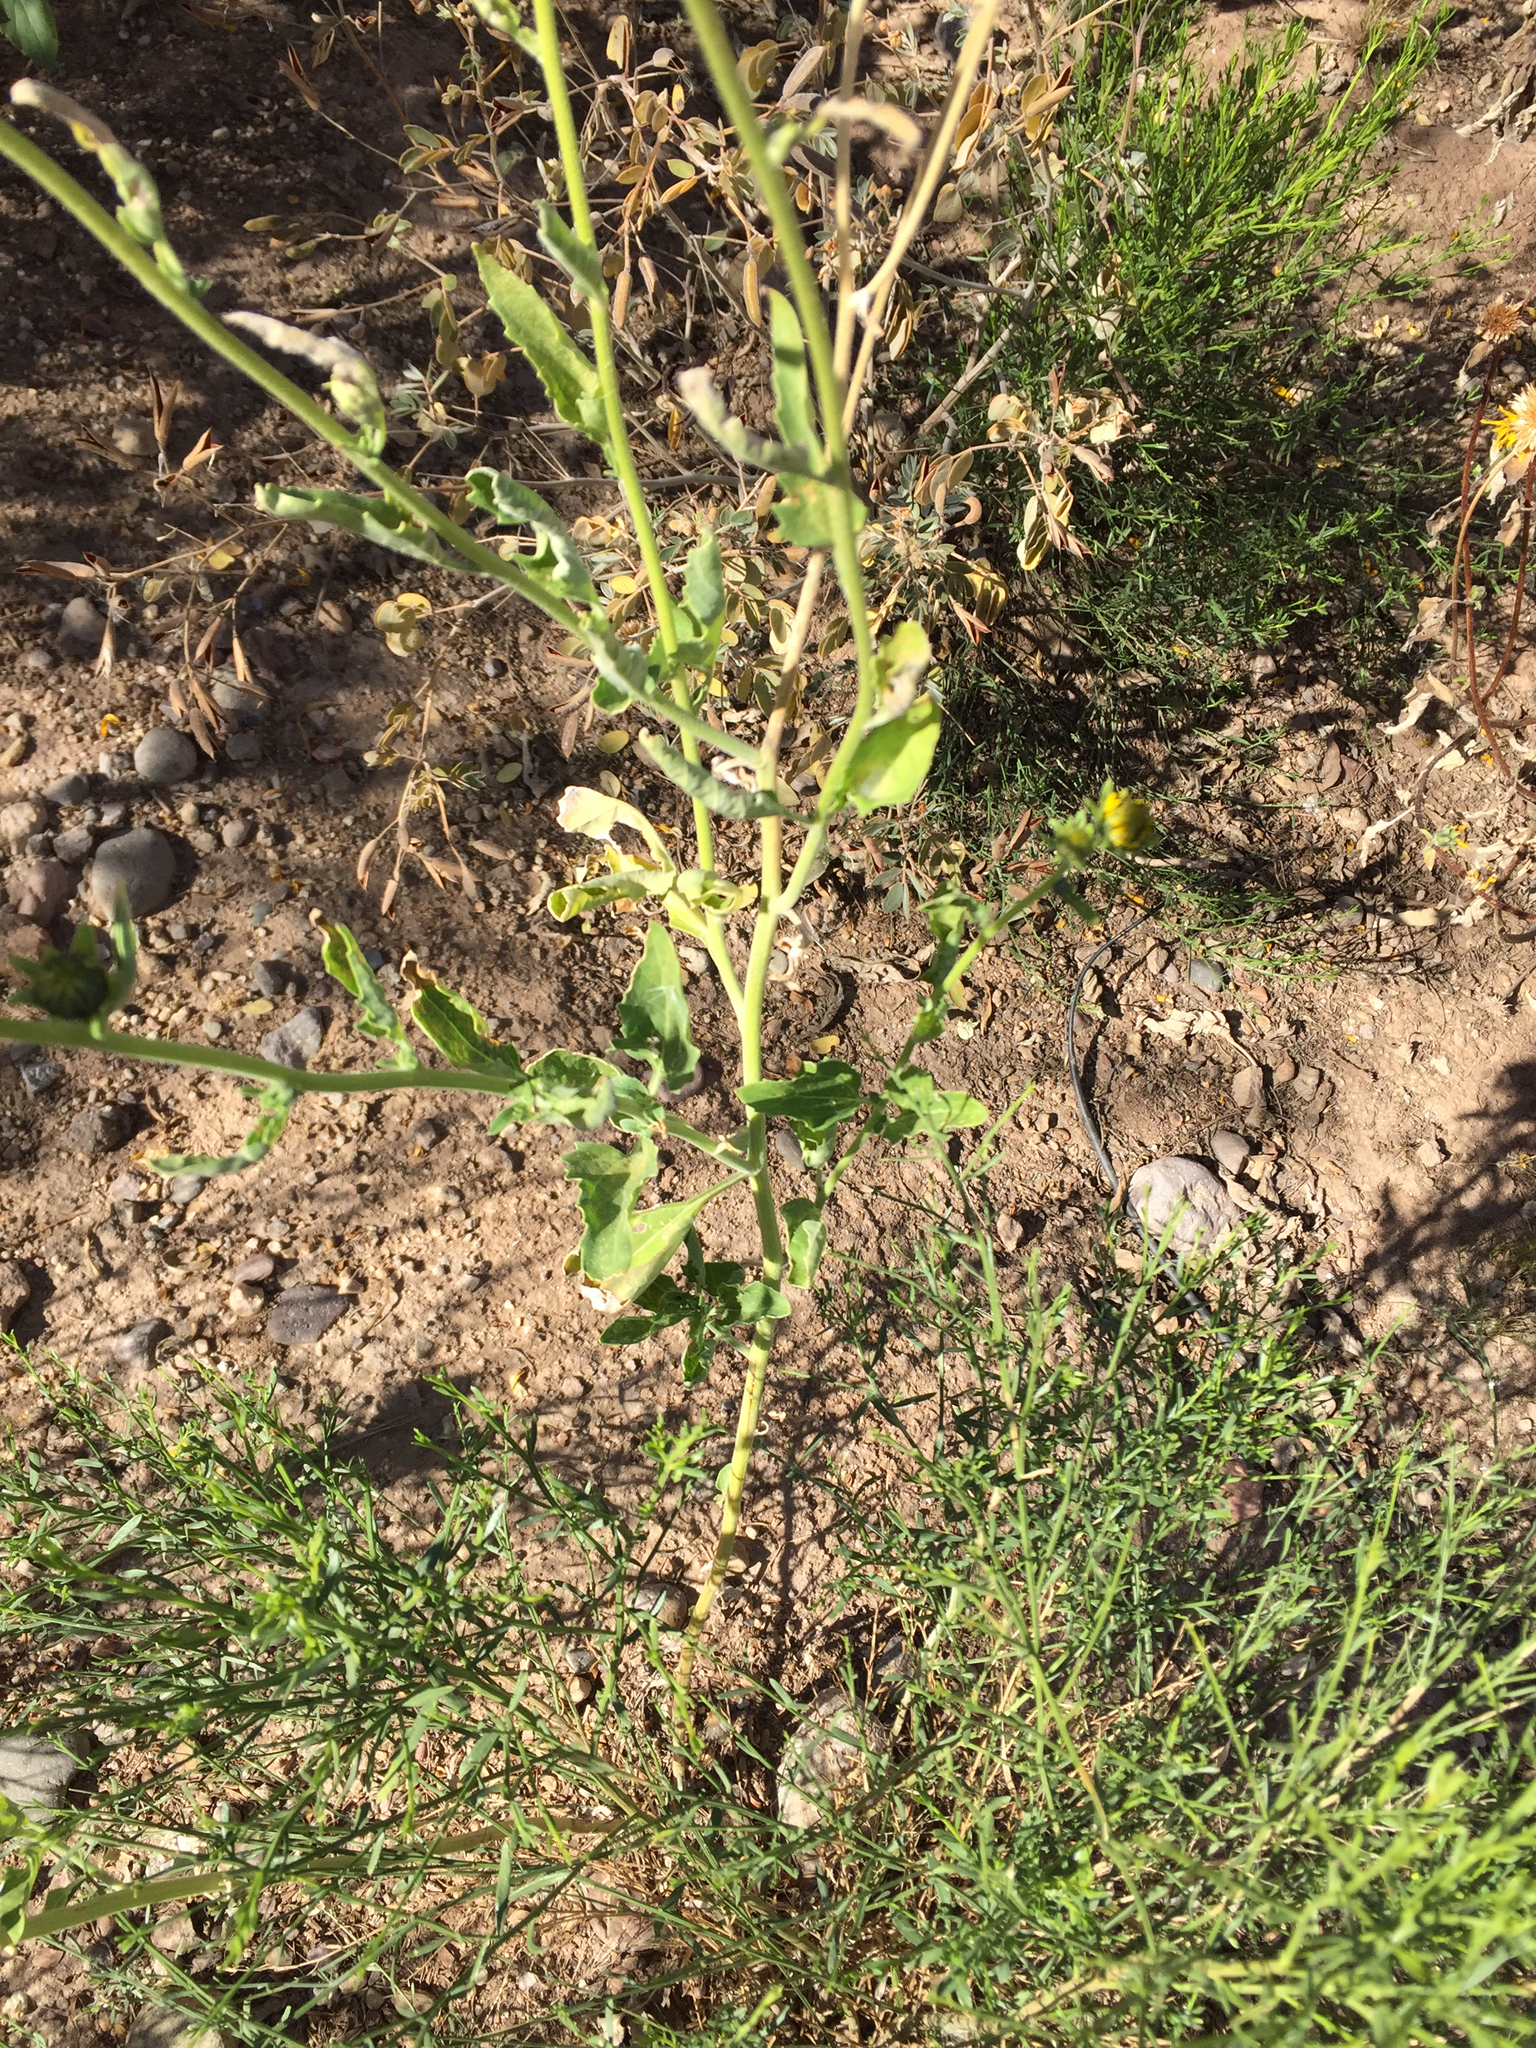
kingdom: Plantae
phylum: Tracheophyta
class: Magnoliopsida
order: Asterales
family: Asteraceae
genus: Verbesina
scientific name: Verbesina encelioides
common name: Golden crownbeard
